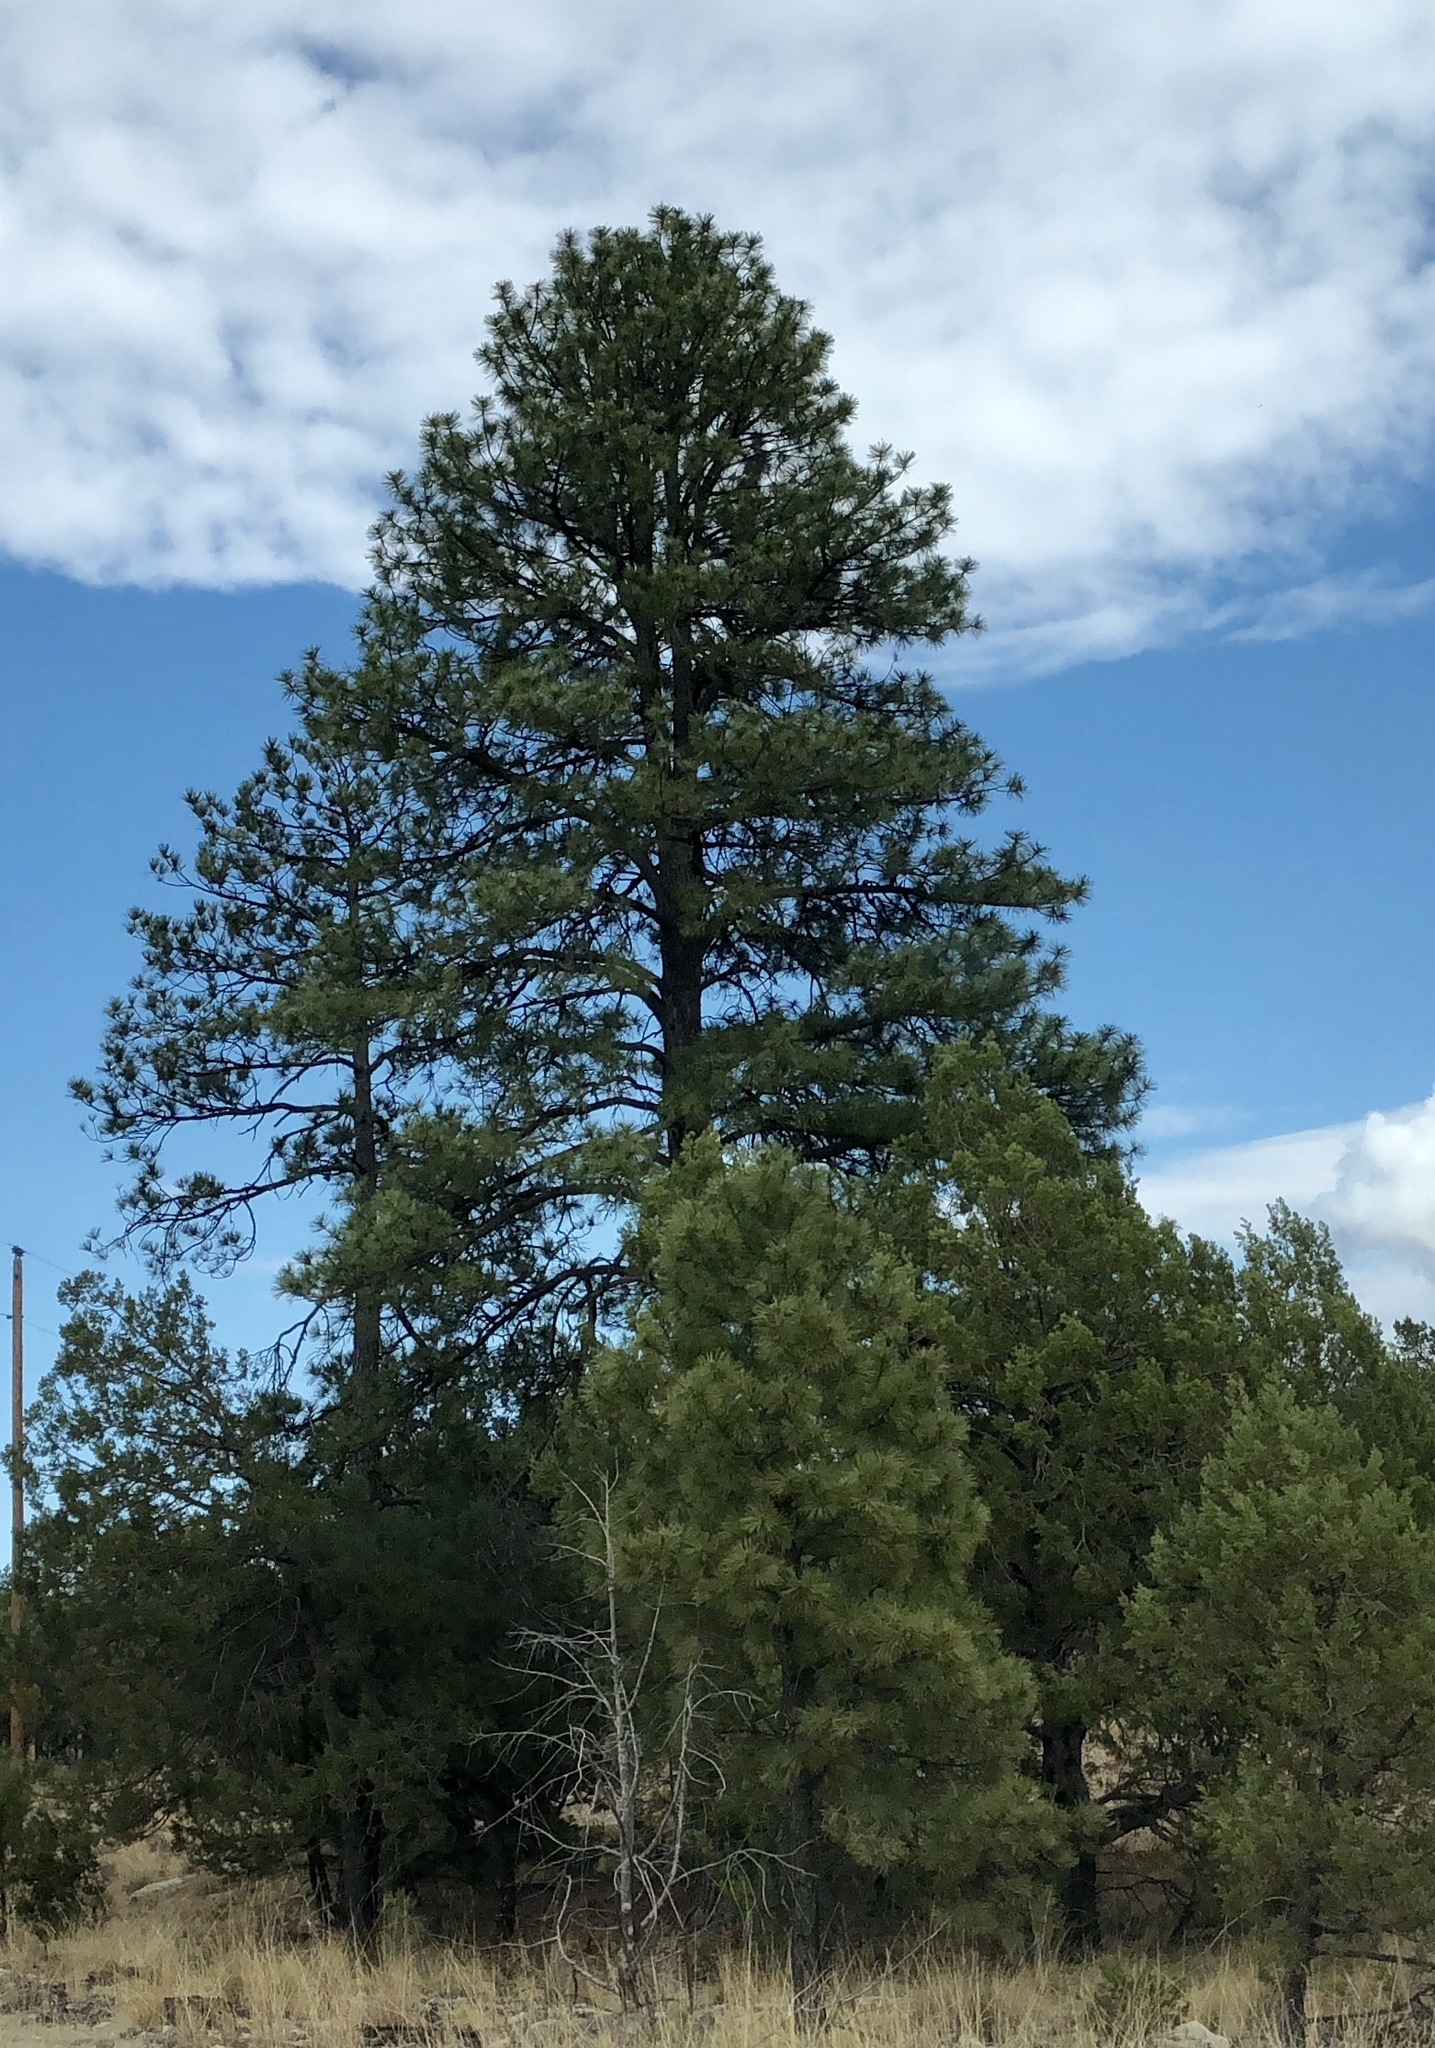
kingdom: Plantae
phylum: Tracheophyta
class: Pinopsida
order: Pinales
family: Pinaceae
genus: Pinus
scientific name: Pinus ponderosa
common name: Western yellow-pine
